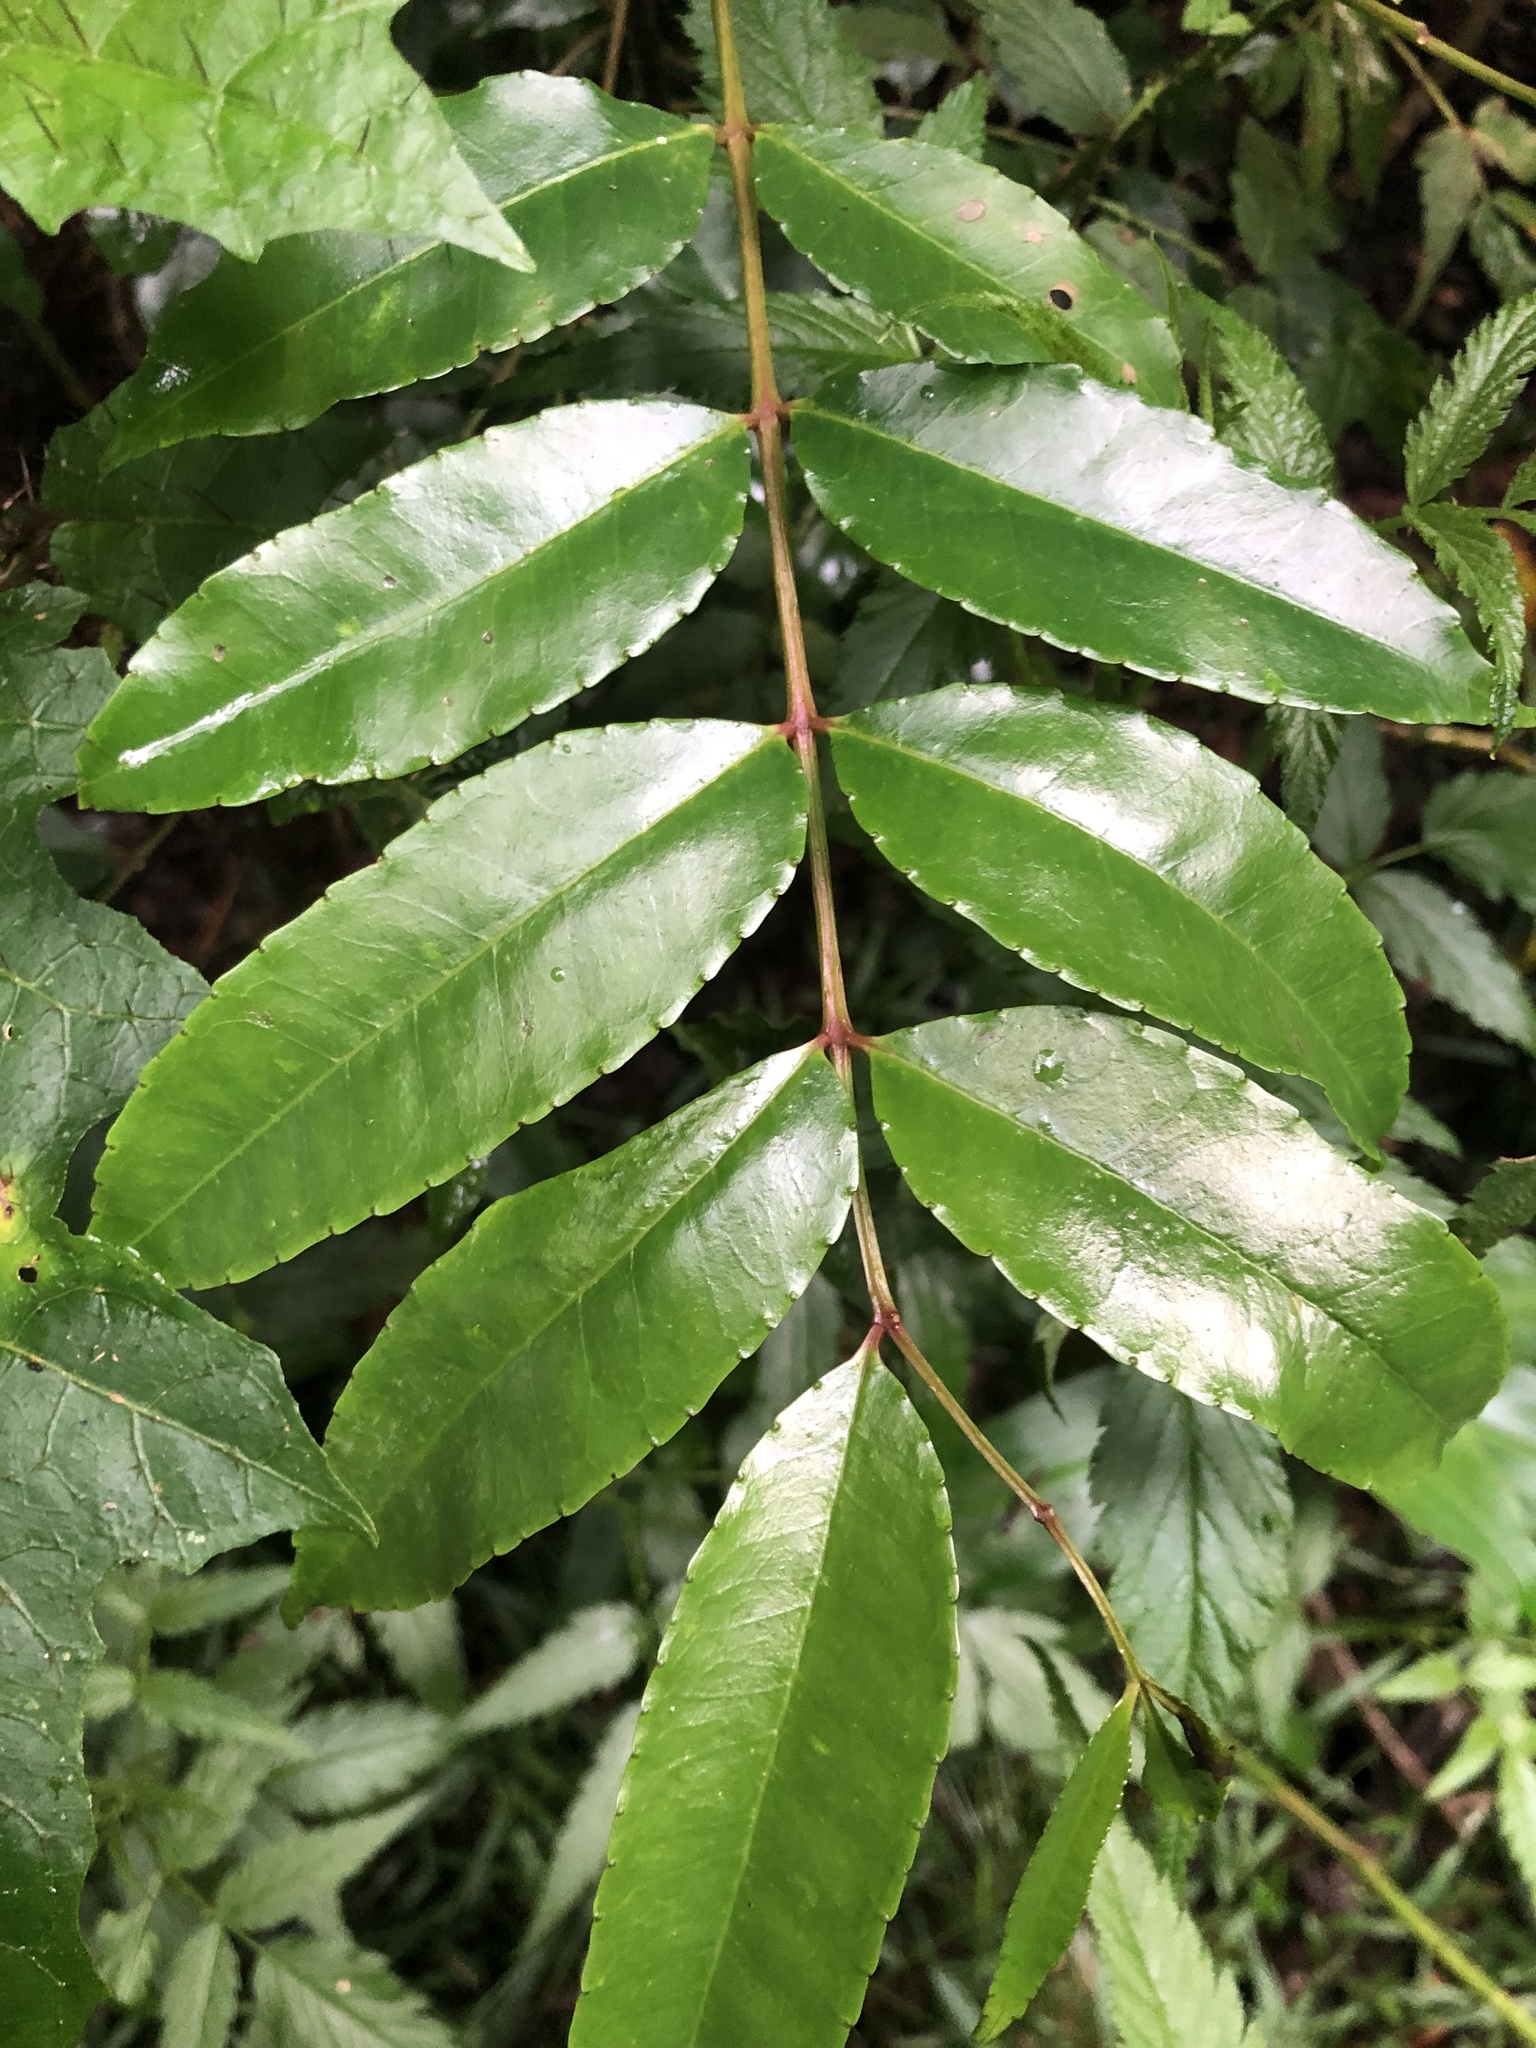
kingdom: Plantae
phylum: Tracheophyta
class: Magnoliopsida
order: Sapindales
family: Rutaceae
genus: Zanthoxylum
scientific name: Zanthoxylum brachyacanthum
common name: Satinwood
